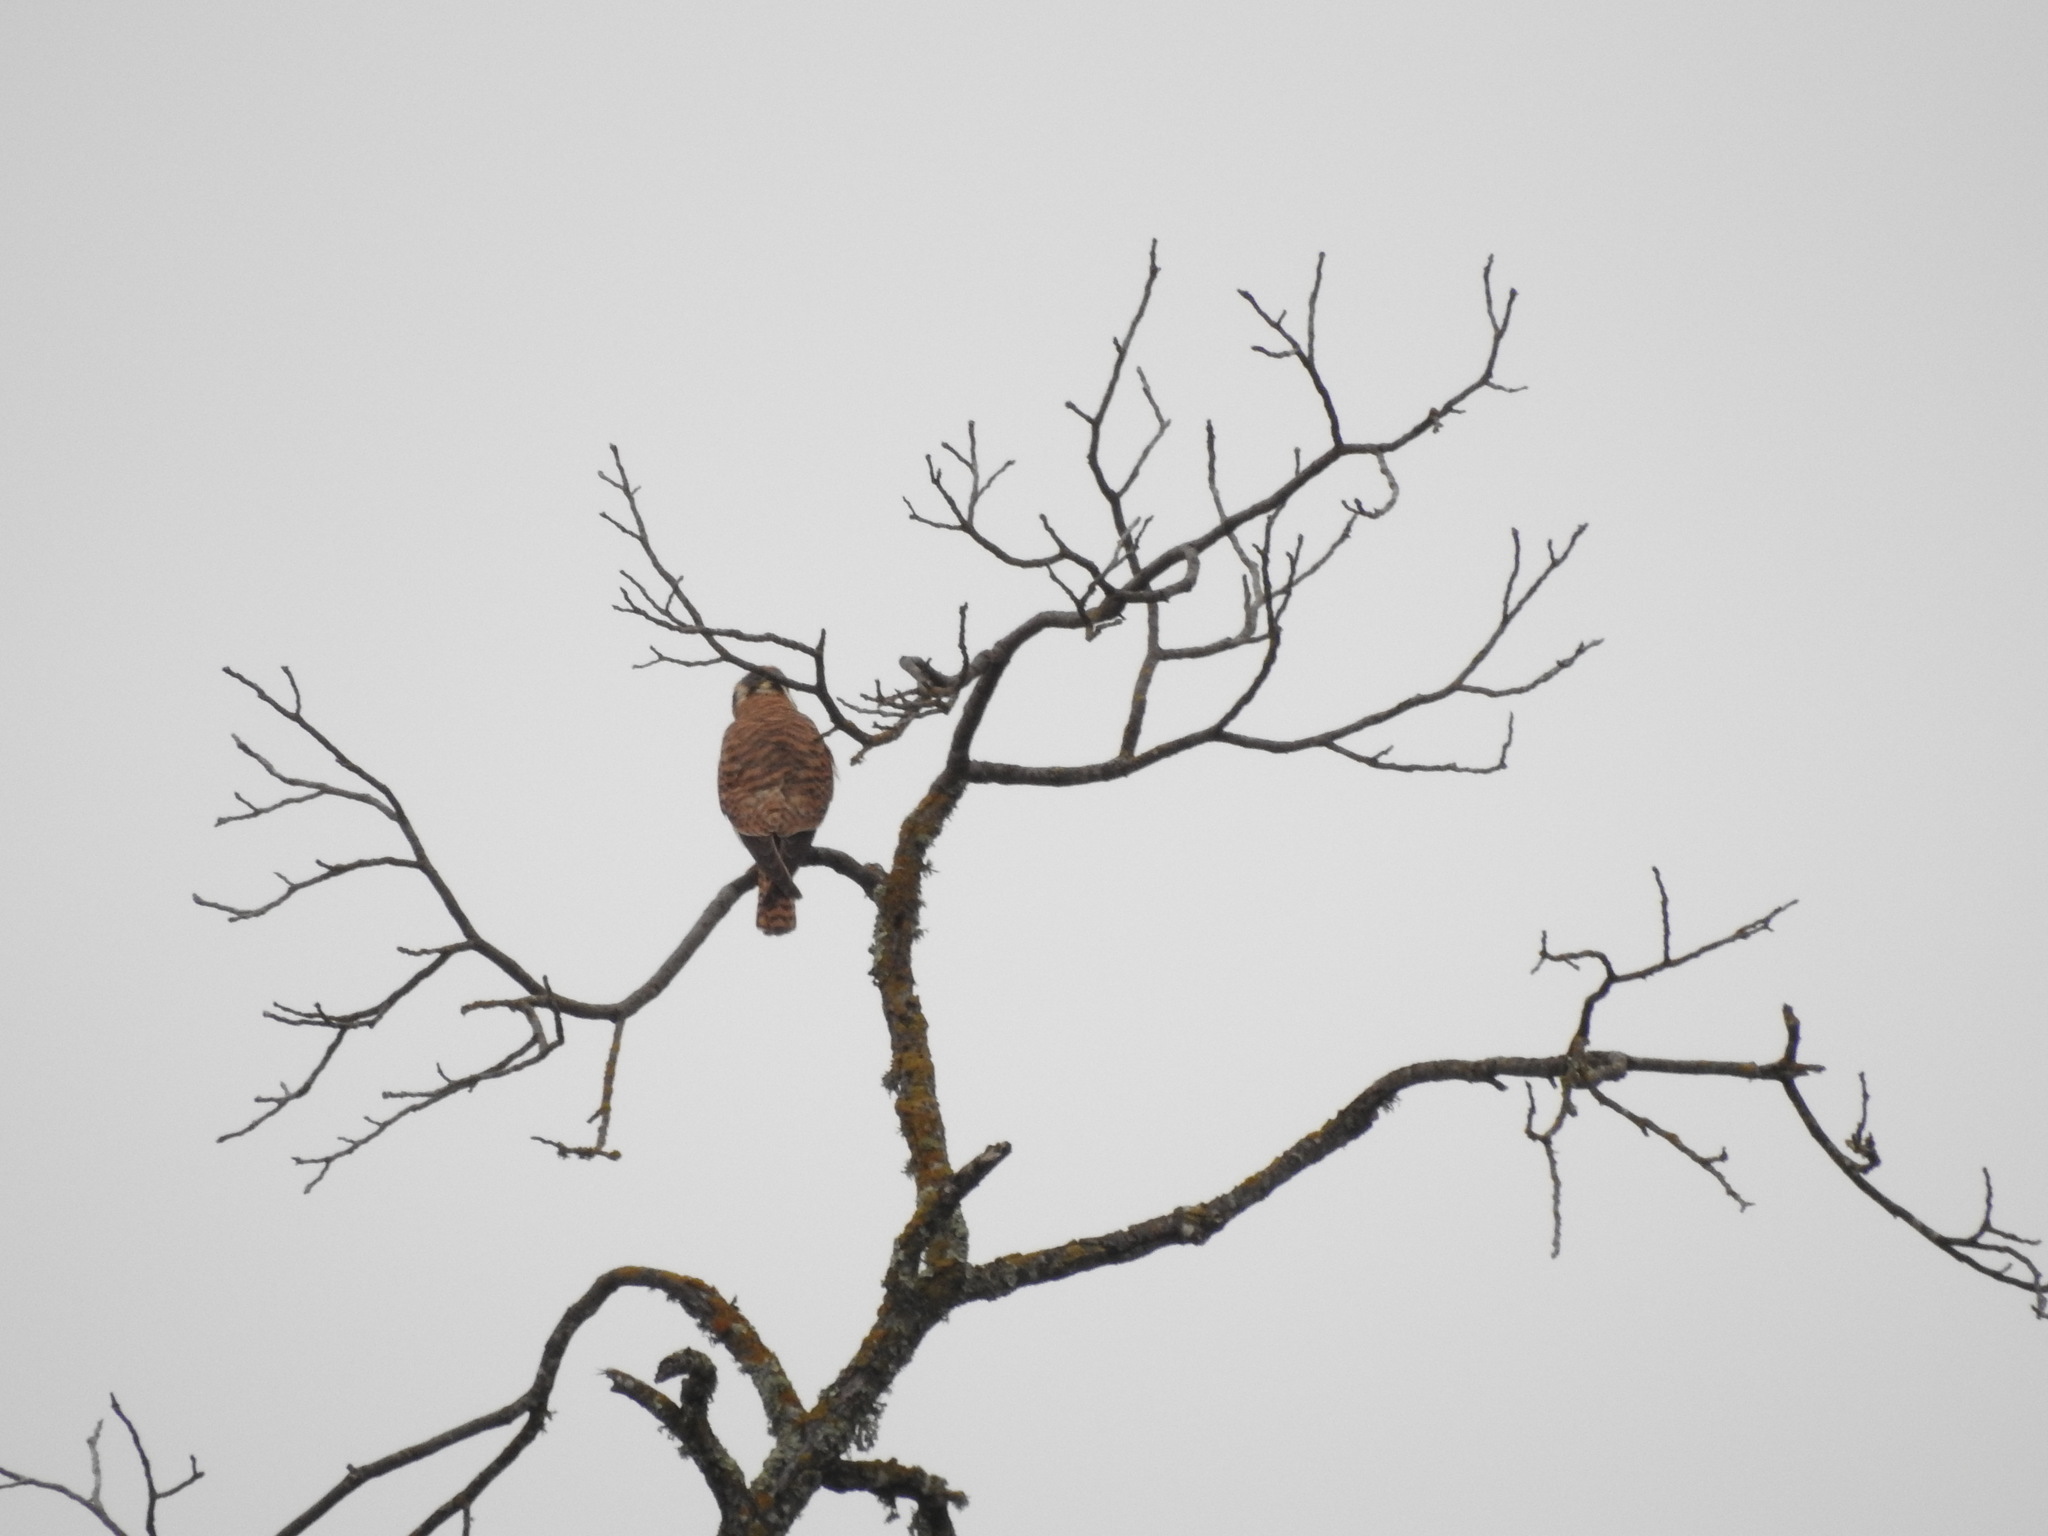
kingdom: Animalia
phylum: Chordata
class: Aves
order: Falconiformes
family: Falconidae
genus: Falco
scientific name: Falco sparverius
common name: American kestrel
